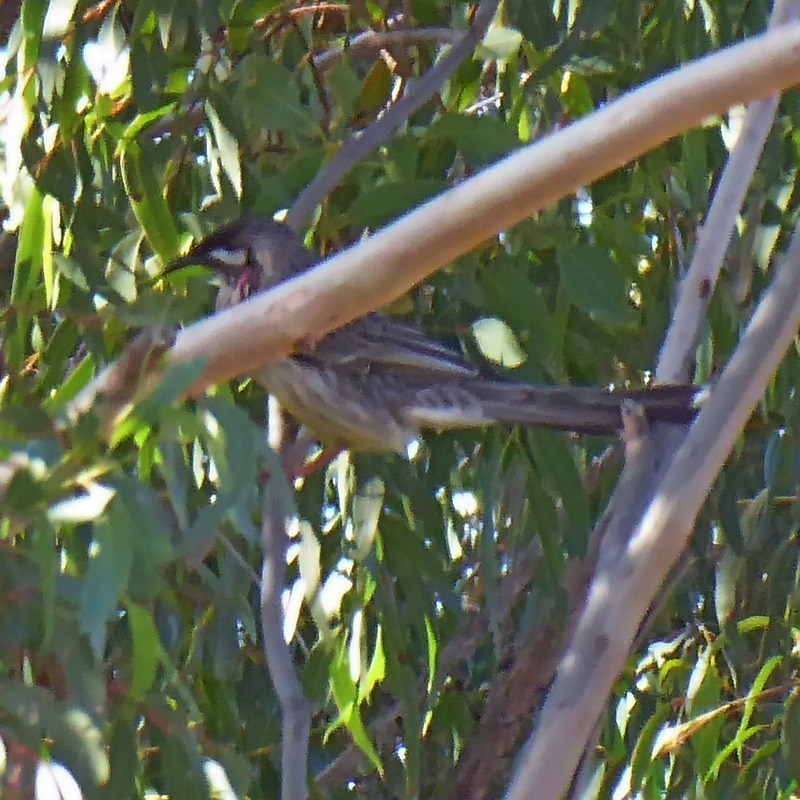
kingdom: Animalia
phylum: Chordata
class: Aves
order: Passeriformes
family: Meliphagidae
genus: Anthochaera
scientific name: Anthochaera carunculata
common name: Red wattlebird
